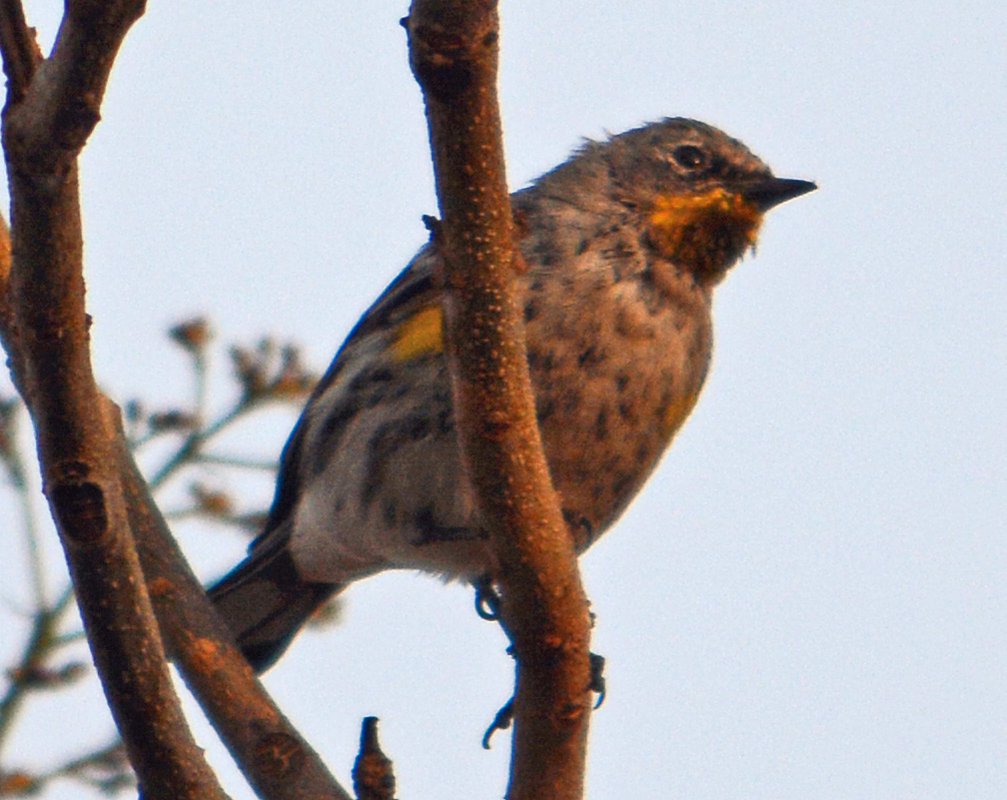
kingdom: Animalia
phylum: Chordata
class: Aves
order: Passeriformes
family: Parulidae
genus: Setophaga
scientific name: Setophaga auduboni
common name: Audubon's warbler
